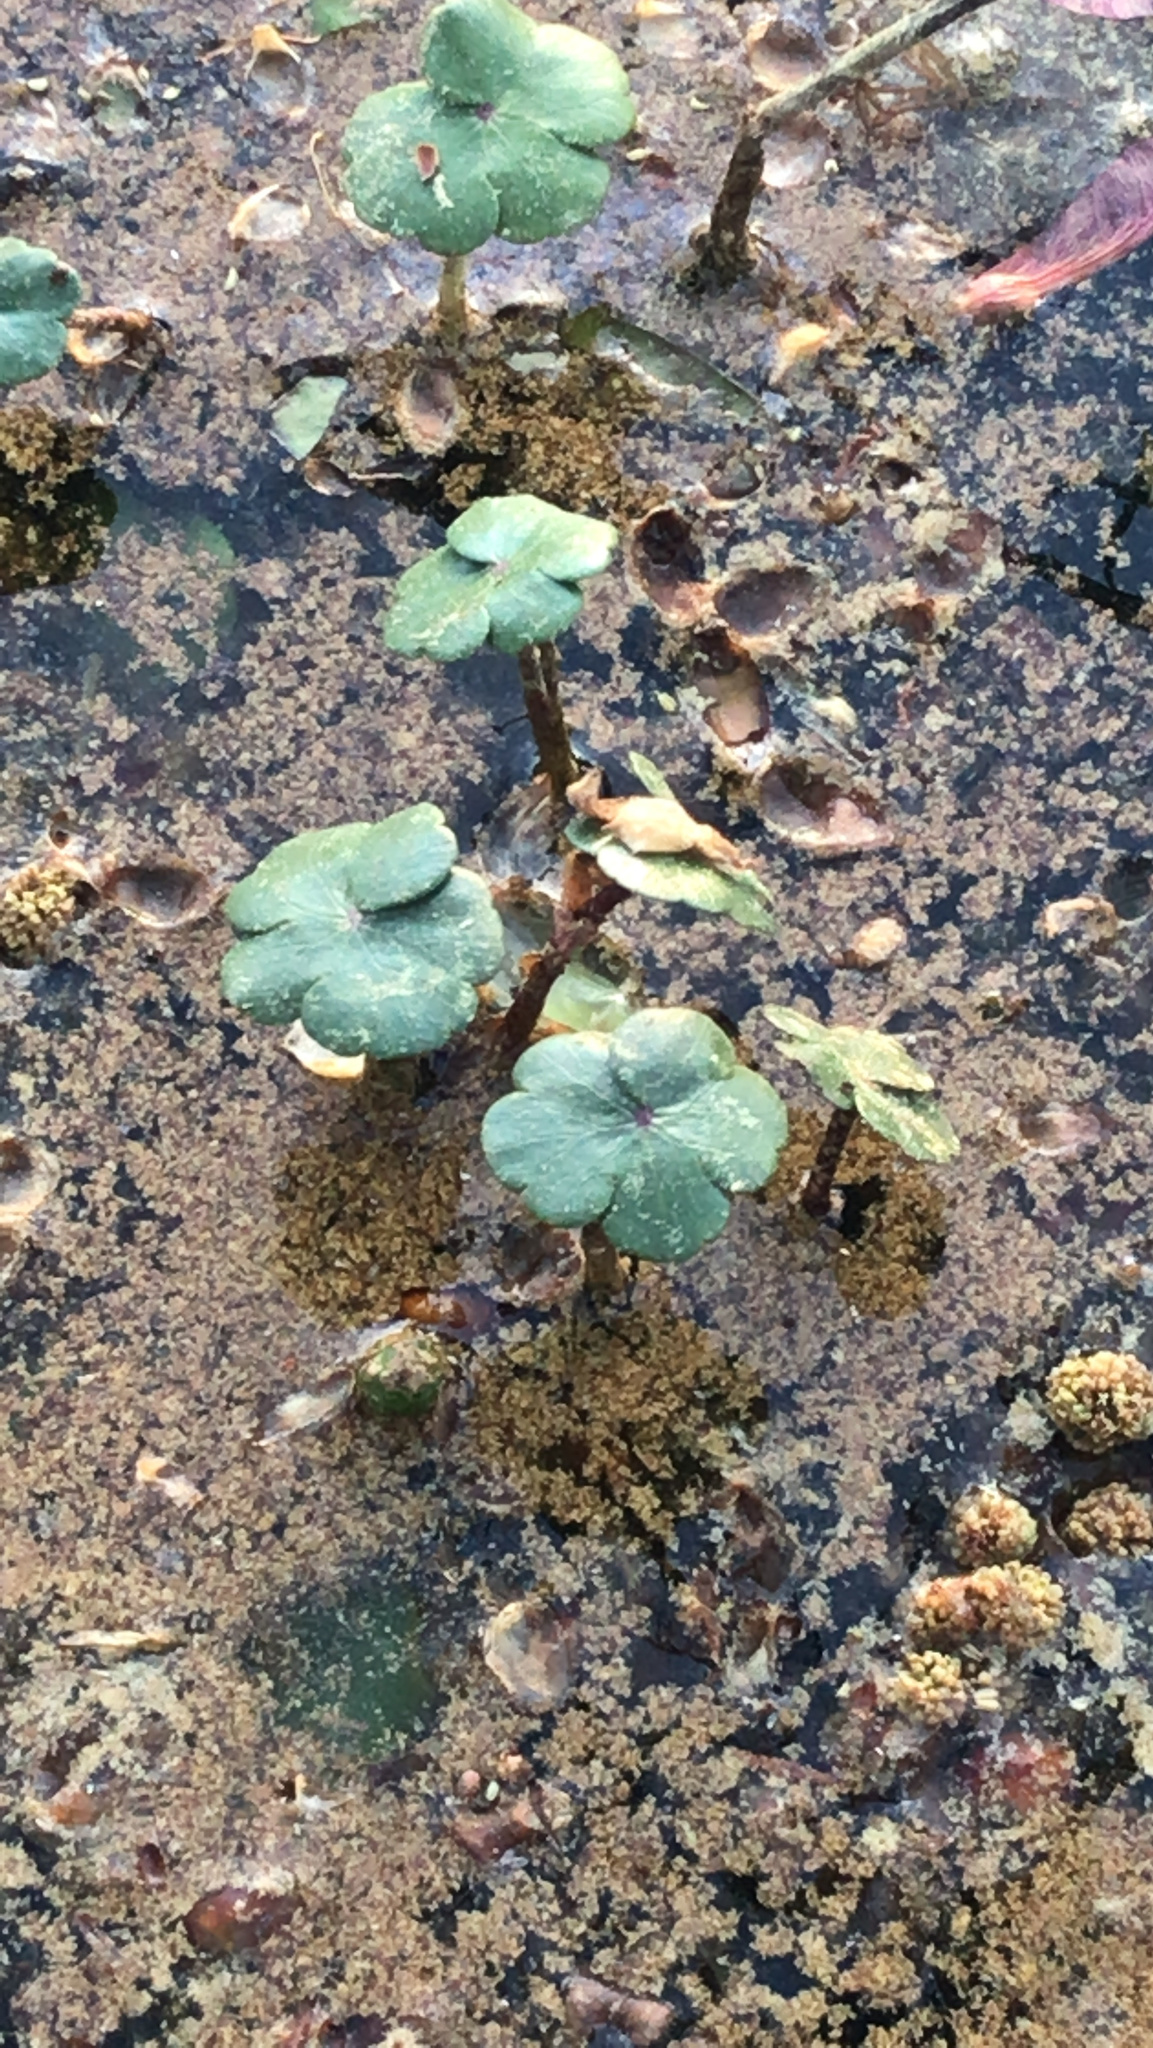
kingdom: Plantae
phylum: Tracheophyta
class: Magnoliopsida
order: Apiales
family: Araliaceae
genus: Hydrocotyle
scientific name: Hydrocotyle ranunculoides
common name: Floating pennywort
